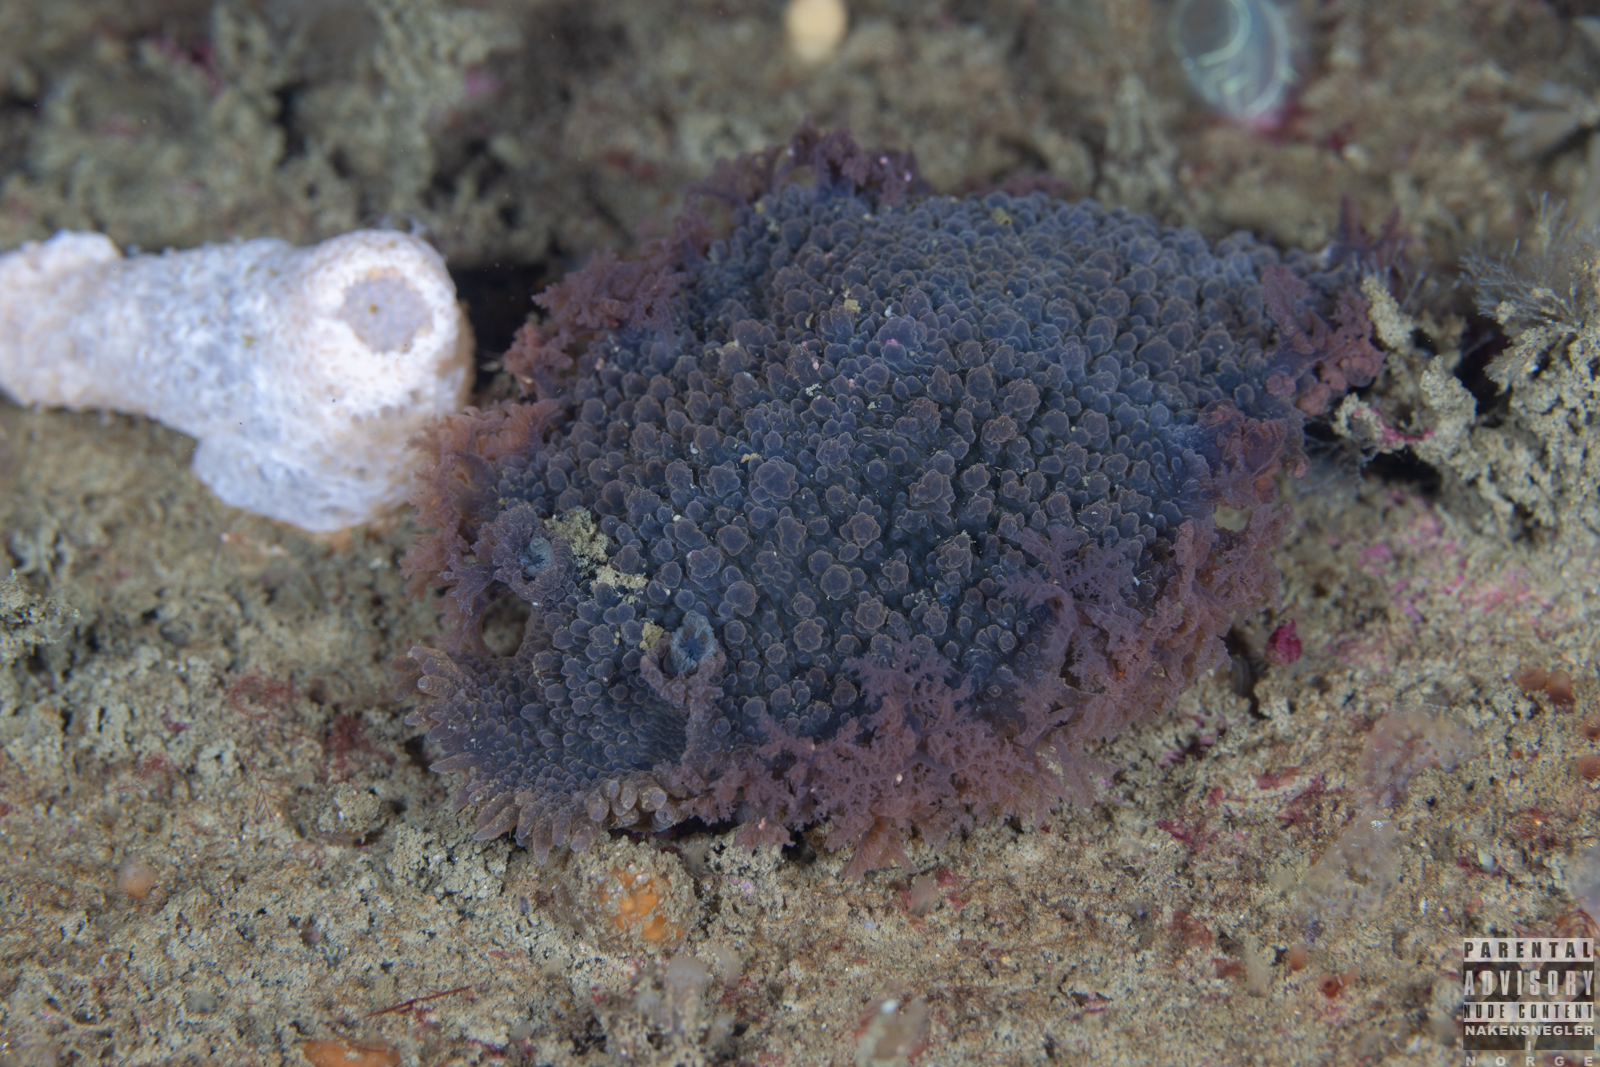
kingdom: Animalia
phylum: Mollusca
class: Gastropoda
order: Nudibranchia
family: Tritoniidae
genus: Tritonia
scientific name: Tritonia hombergii
